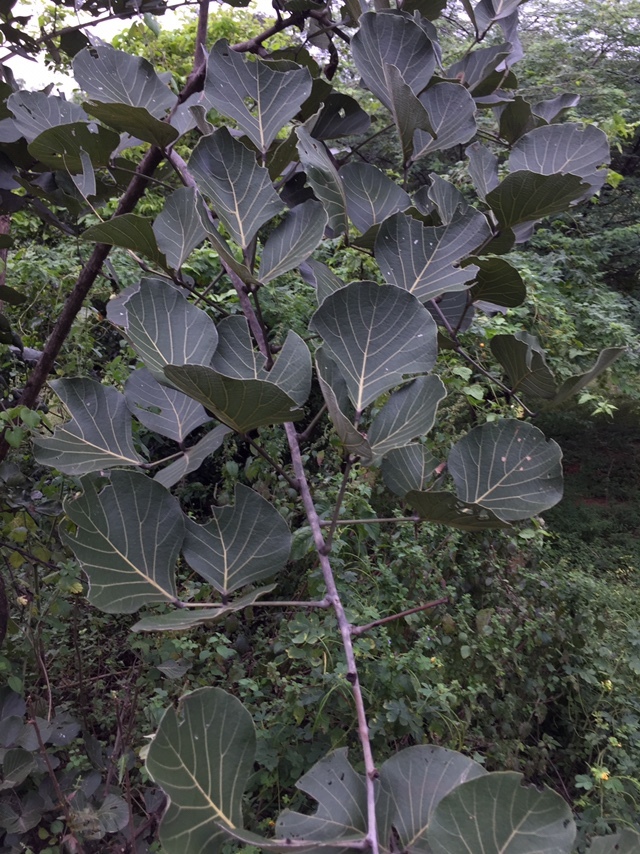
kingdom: Plantae
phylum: Tracheophyta
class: Magnoliopsida
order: Fabales
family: Fabaceae
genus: Butea
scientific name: Butea monosperma
